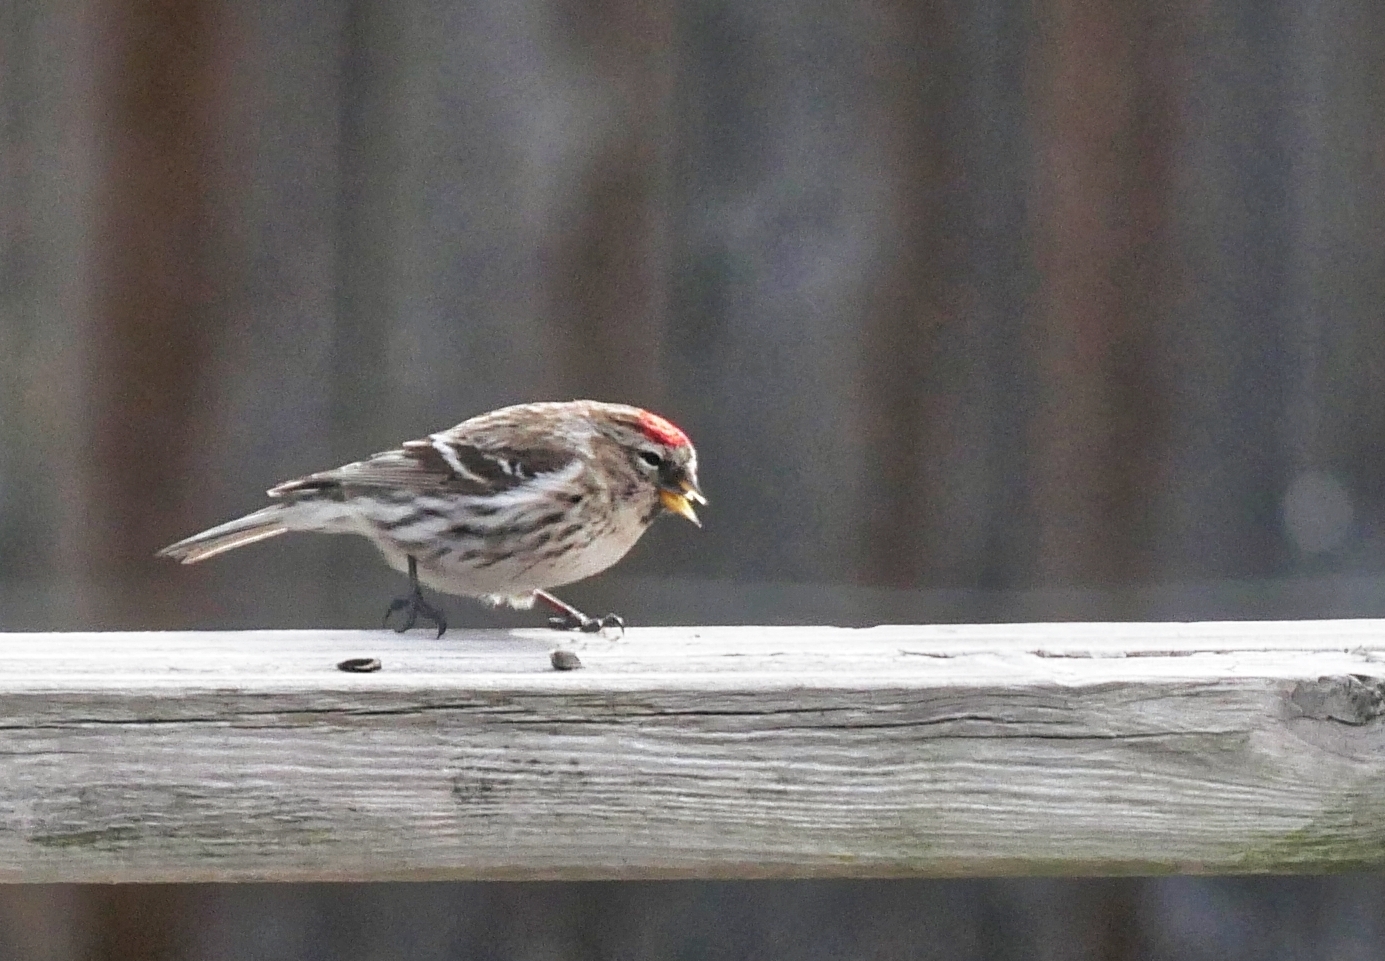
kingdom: Animalia
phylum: Chordata
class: Aves
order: Passeriformes
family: Fringillidae
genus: Acanthis
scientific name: Acanthis flammea
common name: Common redpoll
